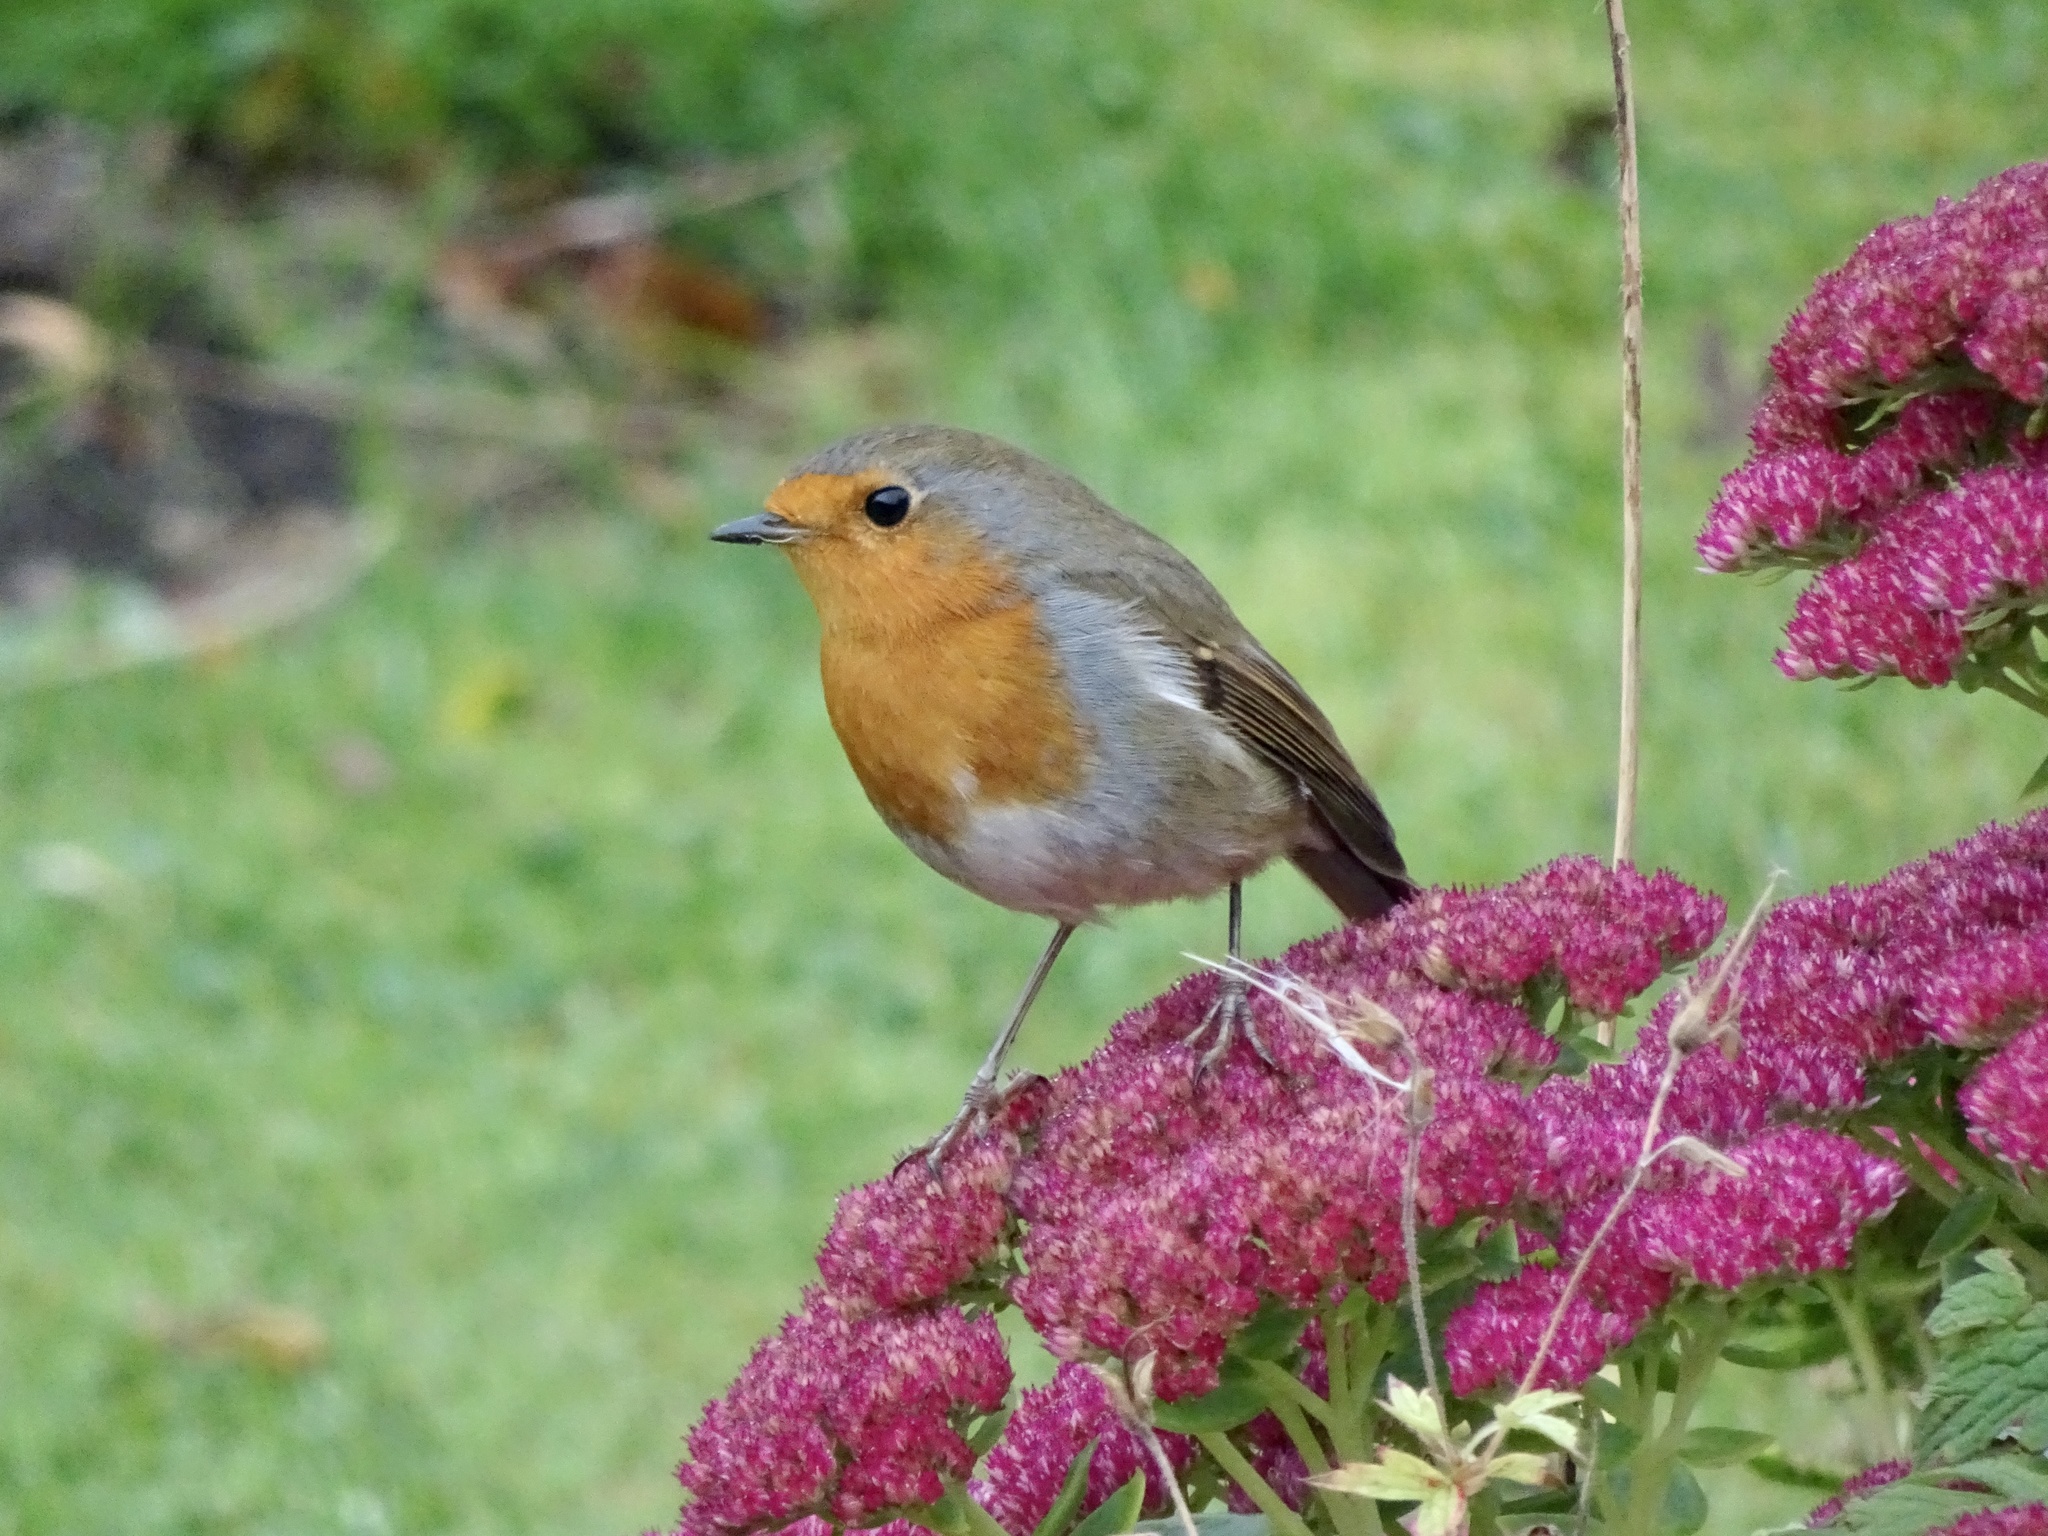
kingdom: Animalia
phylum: Chordata
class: Aves
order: Passeriformes
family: Muscicapidae
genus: Erithacus
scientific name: Erithacus rubecula
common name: European robin
